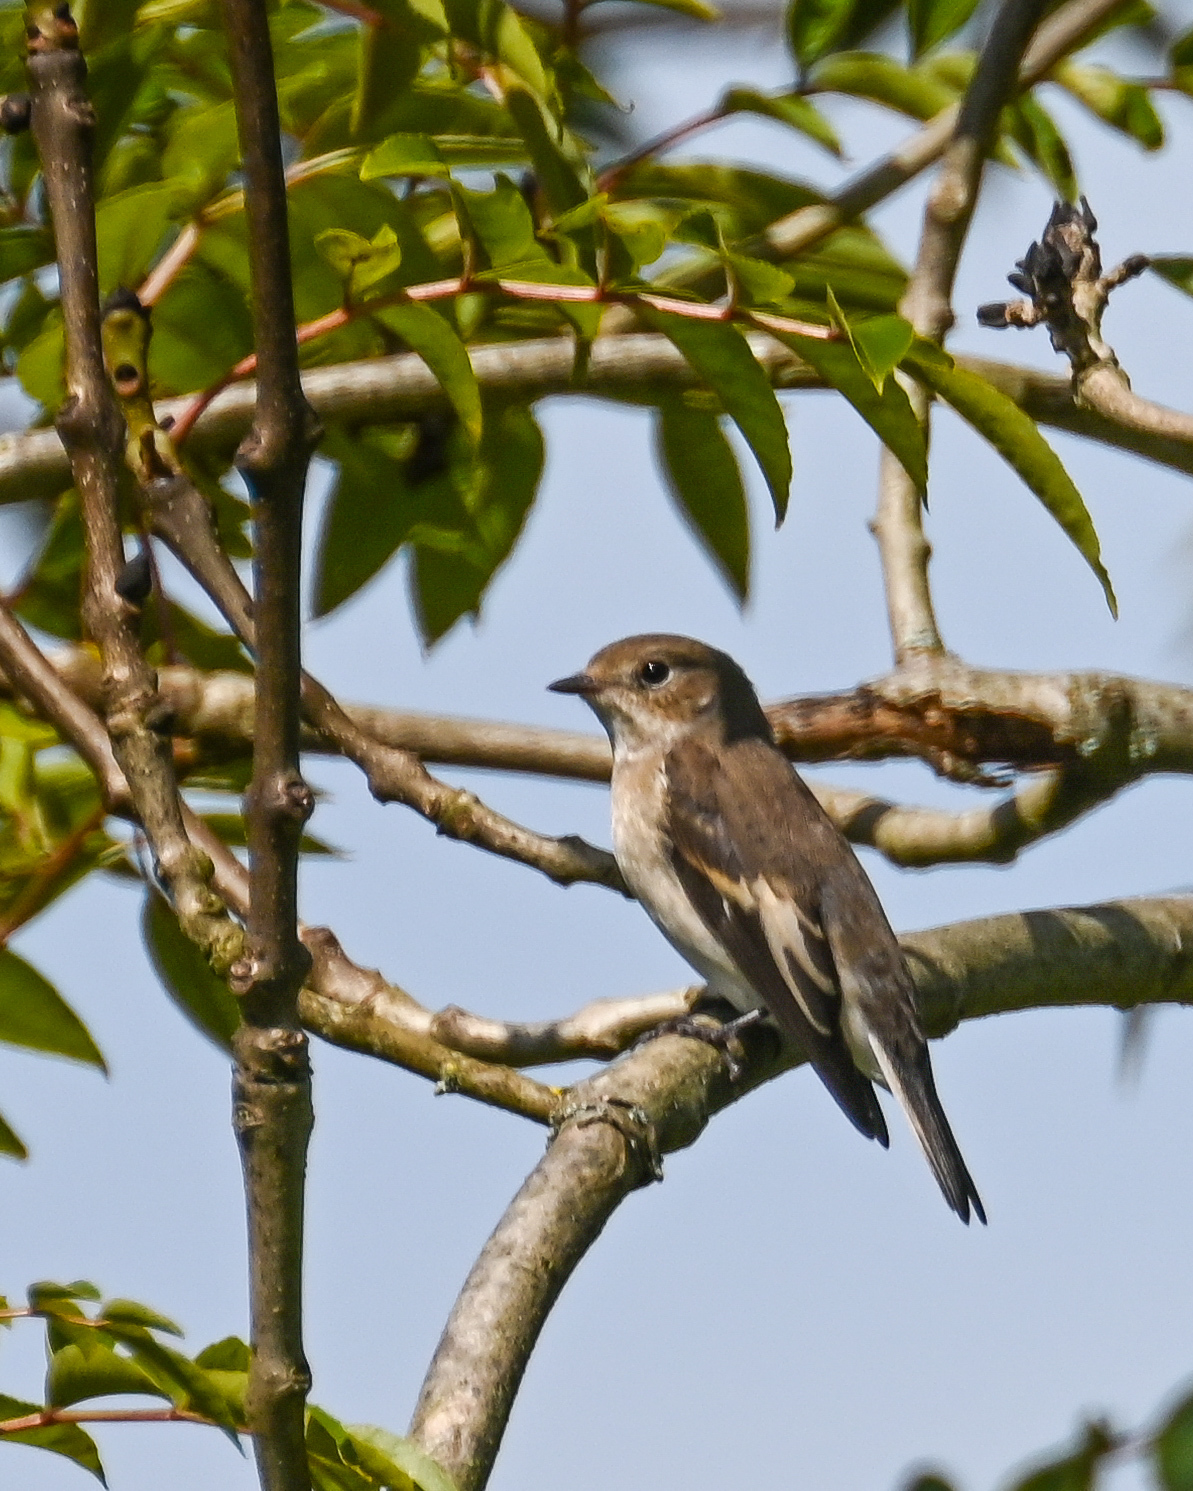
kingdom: Animalia
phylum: Chordata
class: Aves
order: Passeriformes
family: Muscicapidae
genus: Ficedula
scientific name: Ficedula hypoleuca
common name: European pied flycatcher
